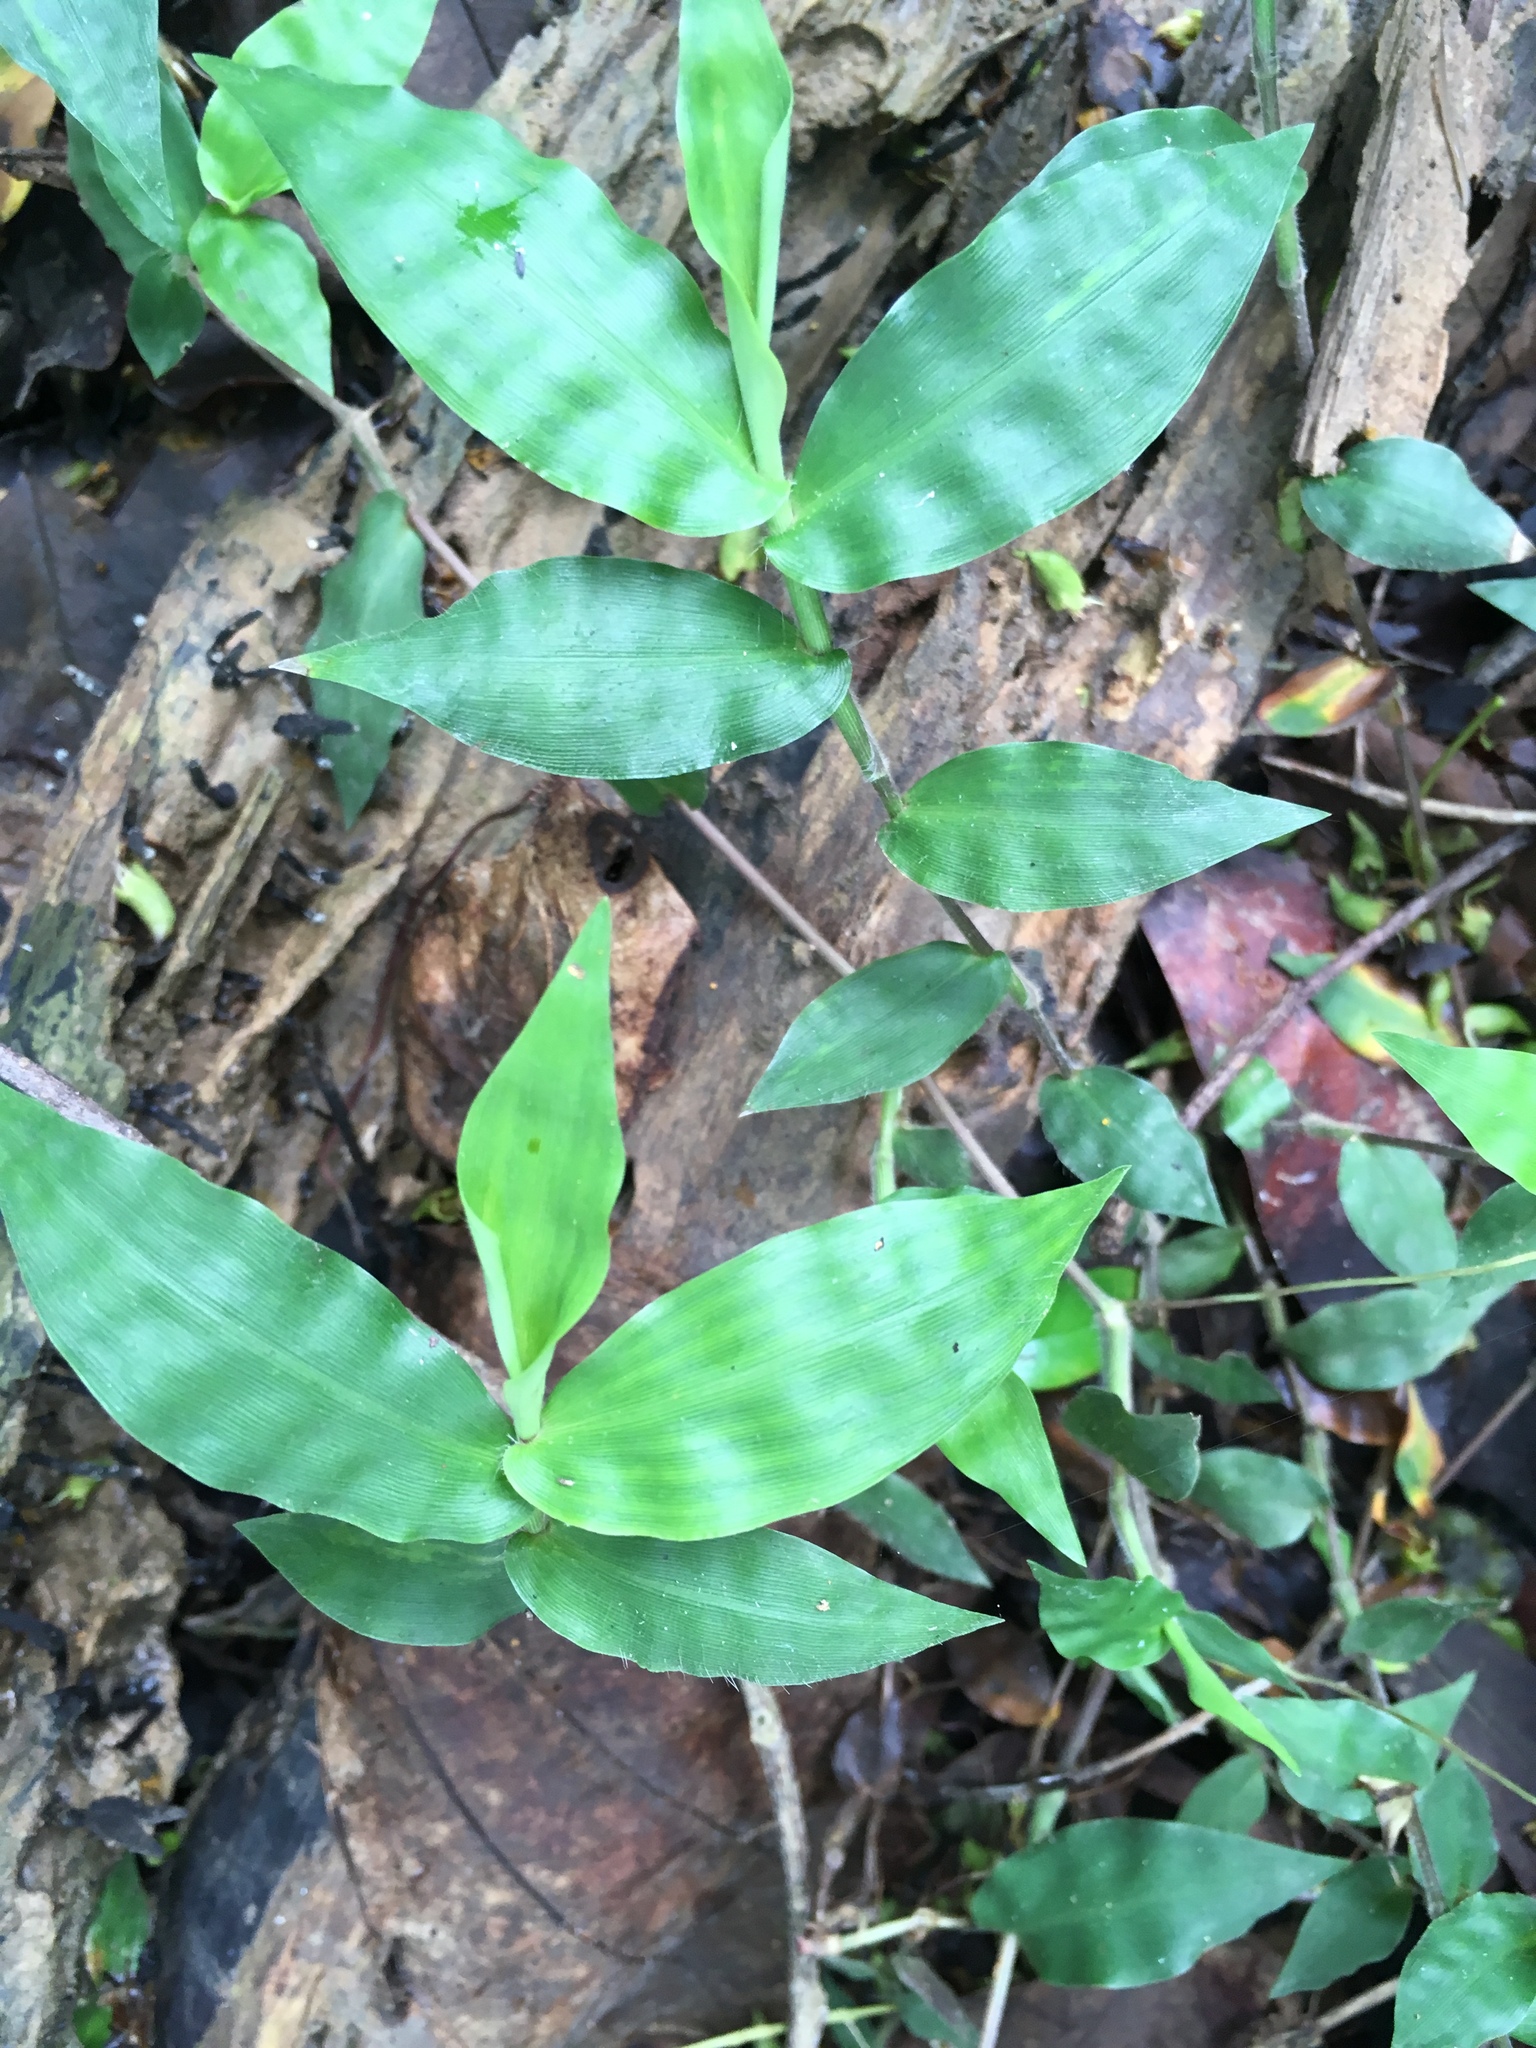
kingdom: Plantae
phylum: Tracheophyta
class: Liliopsida
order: Poales
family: Poaceae
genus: Oplismenus
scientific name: Oplismenus compositus
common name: Running mountain grass
